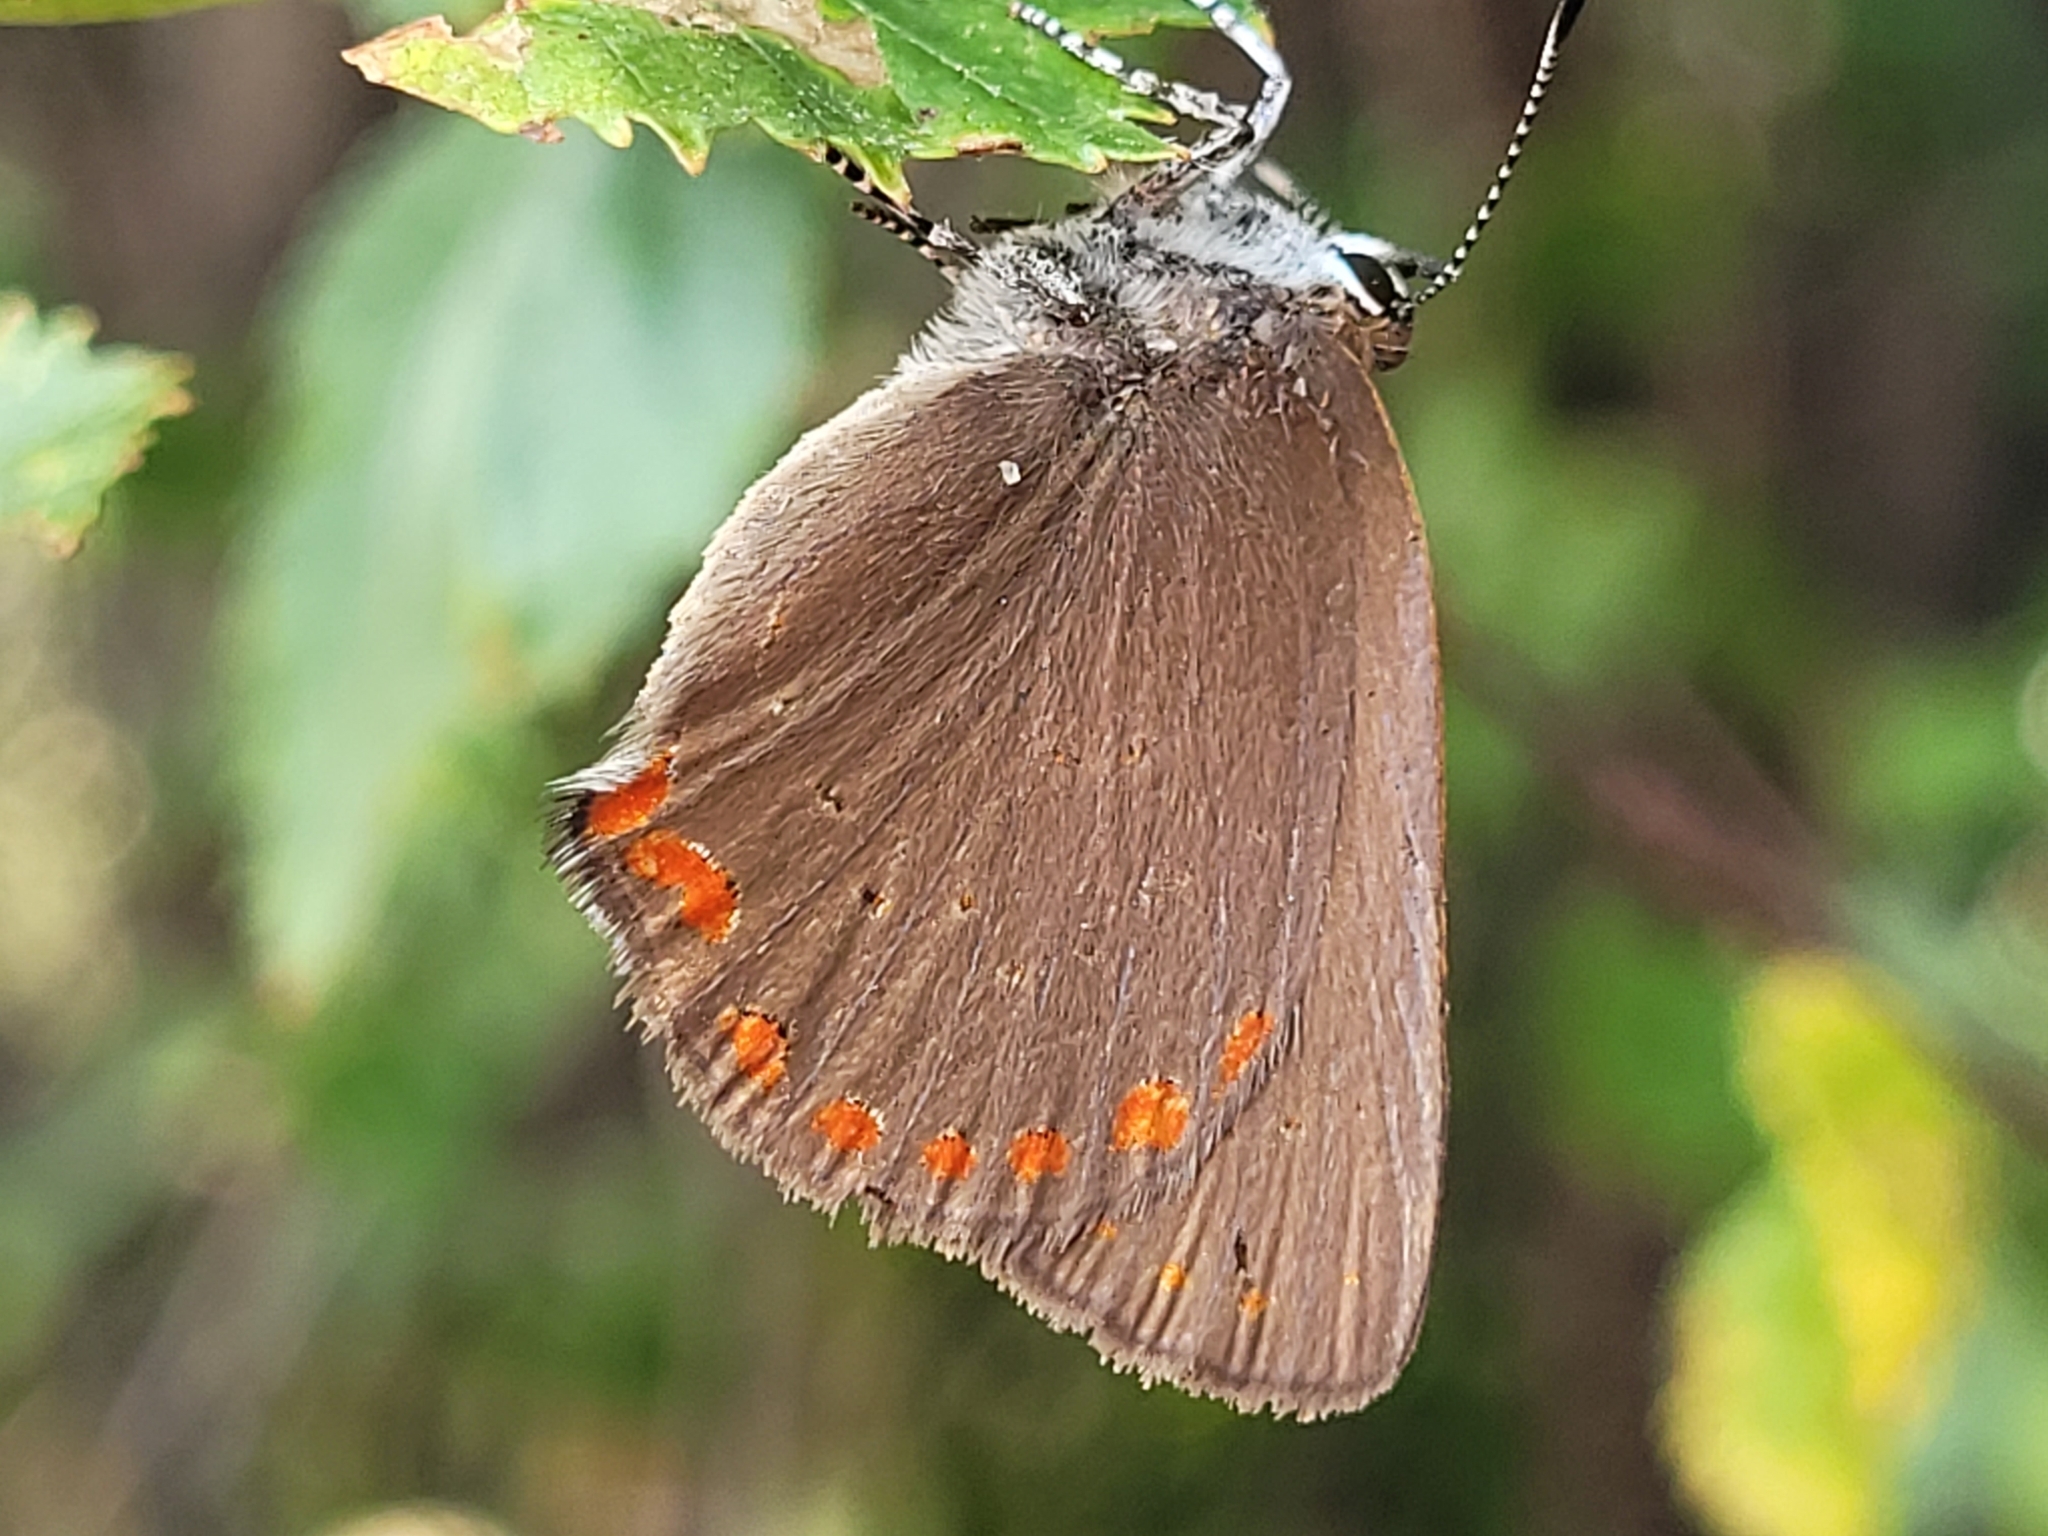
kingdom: Animalia
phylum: Arthropoda
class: Insecta
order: Lepidoptera
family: Lycaenidae
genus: Harkenclenus
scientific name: Harkenclenus titus
